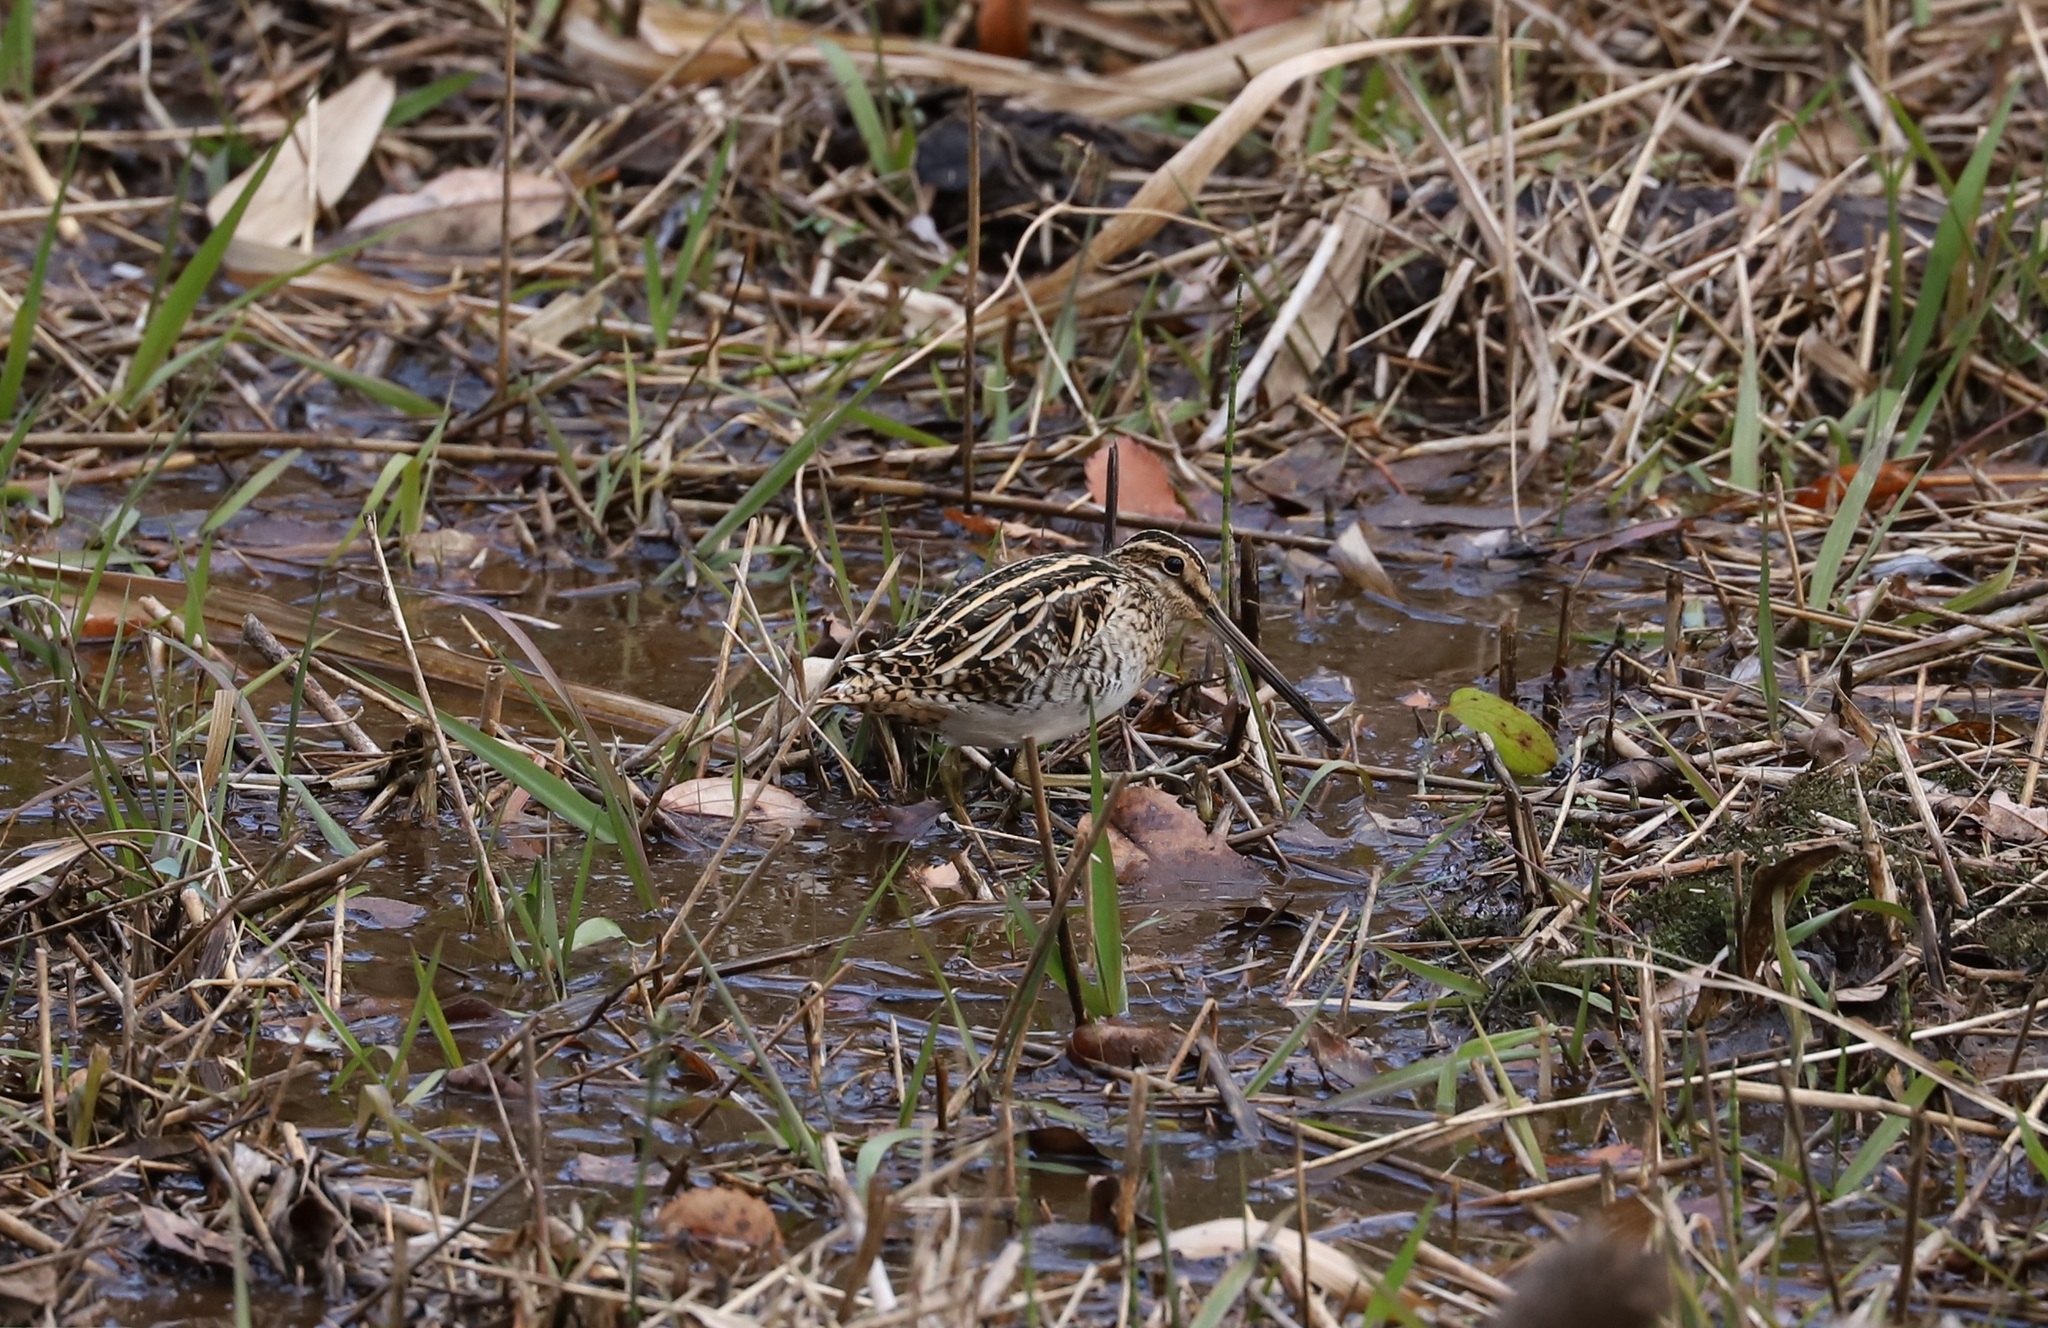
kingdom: Animalia
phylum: Chordata
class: Aves
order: Charadriiformes
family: Scolopacidae
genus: Gallinago
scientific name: Gallinago gallinago
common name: Common snipe
